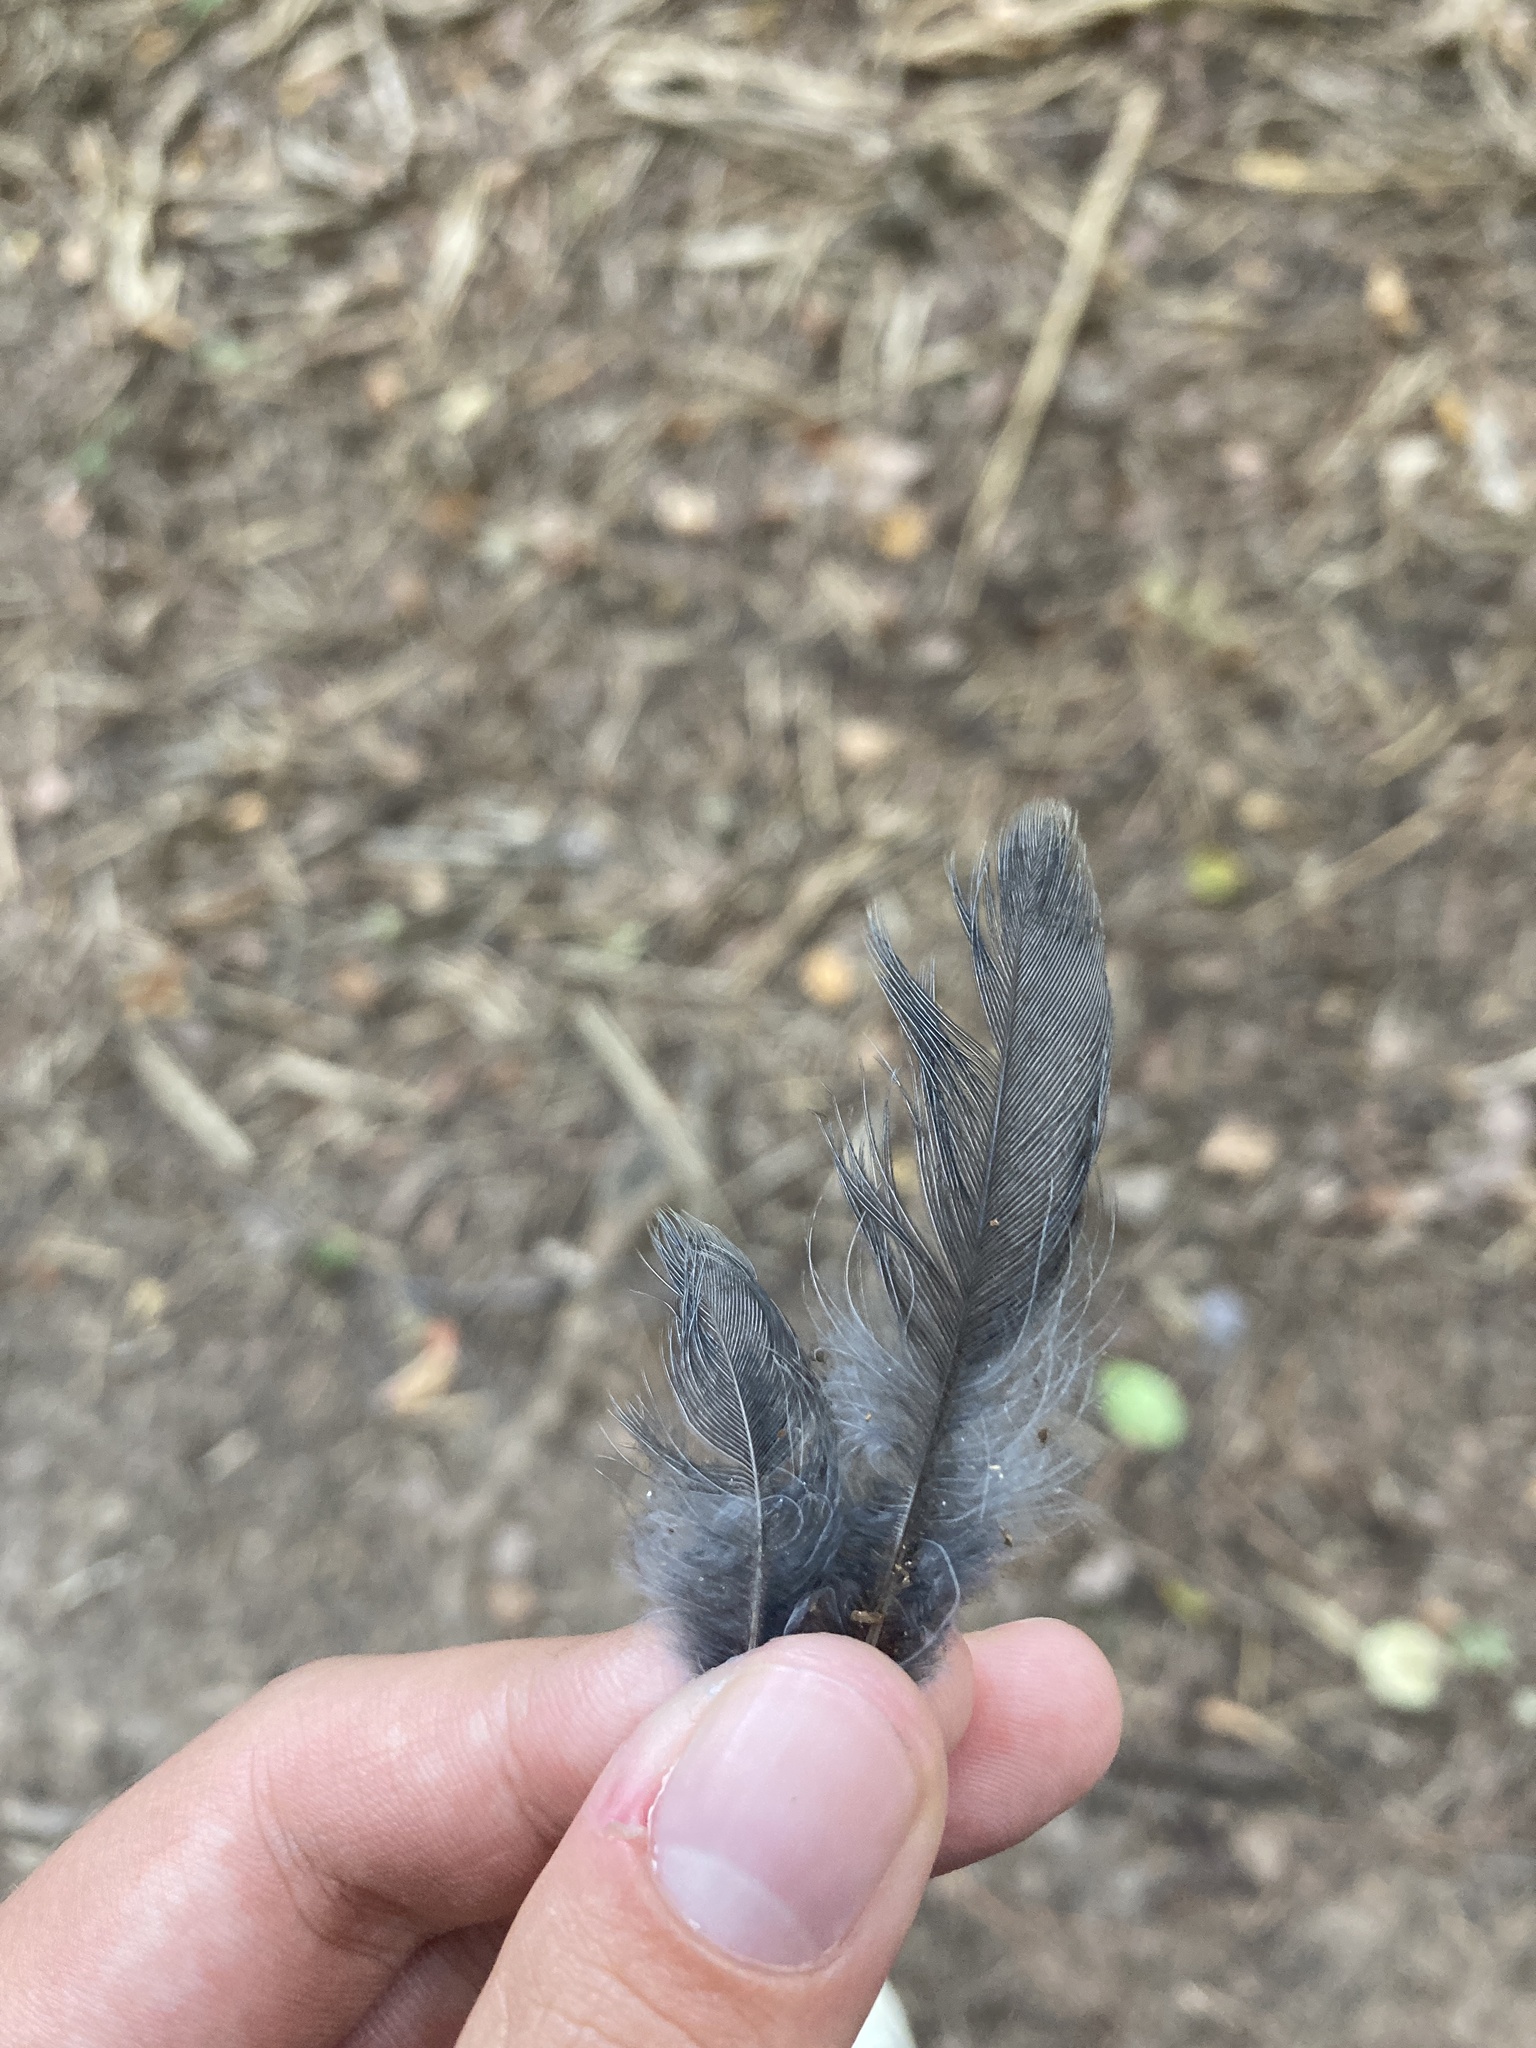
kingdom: Animalia
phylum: Chordata
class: Aves
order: Passeriformes
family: Turdidae
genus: Turdus
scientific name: Turdus migratorius
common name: American robin
